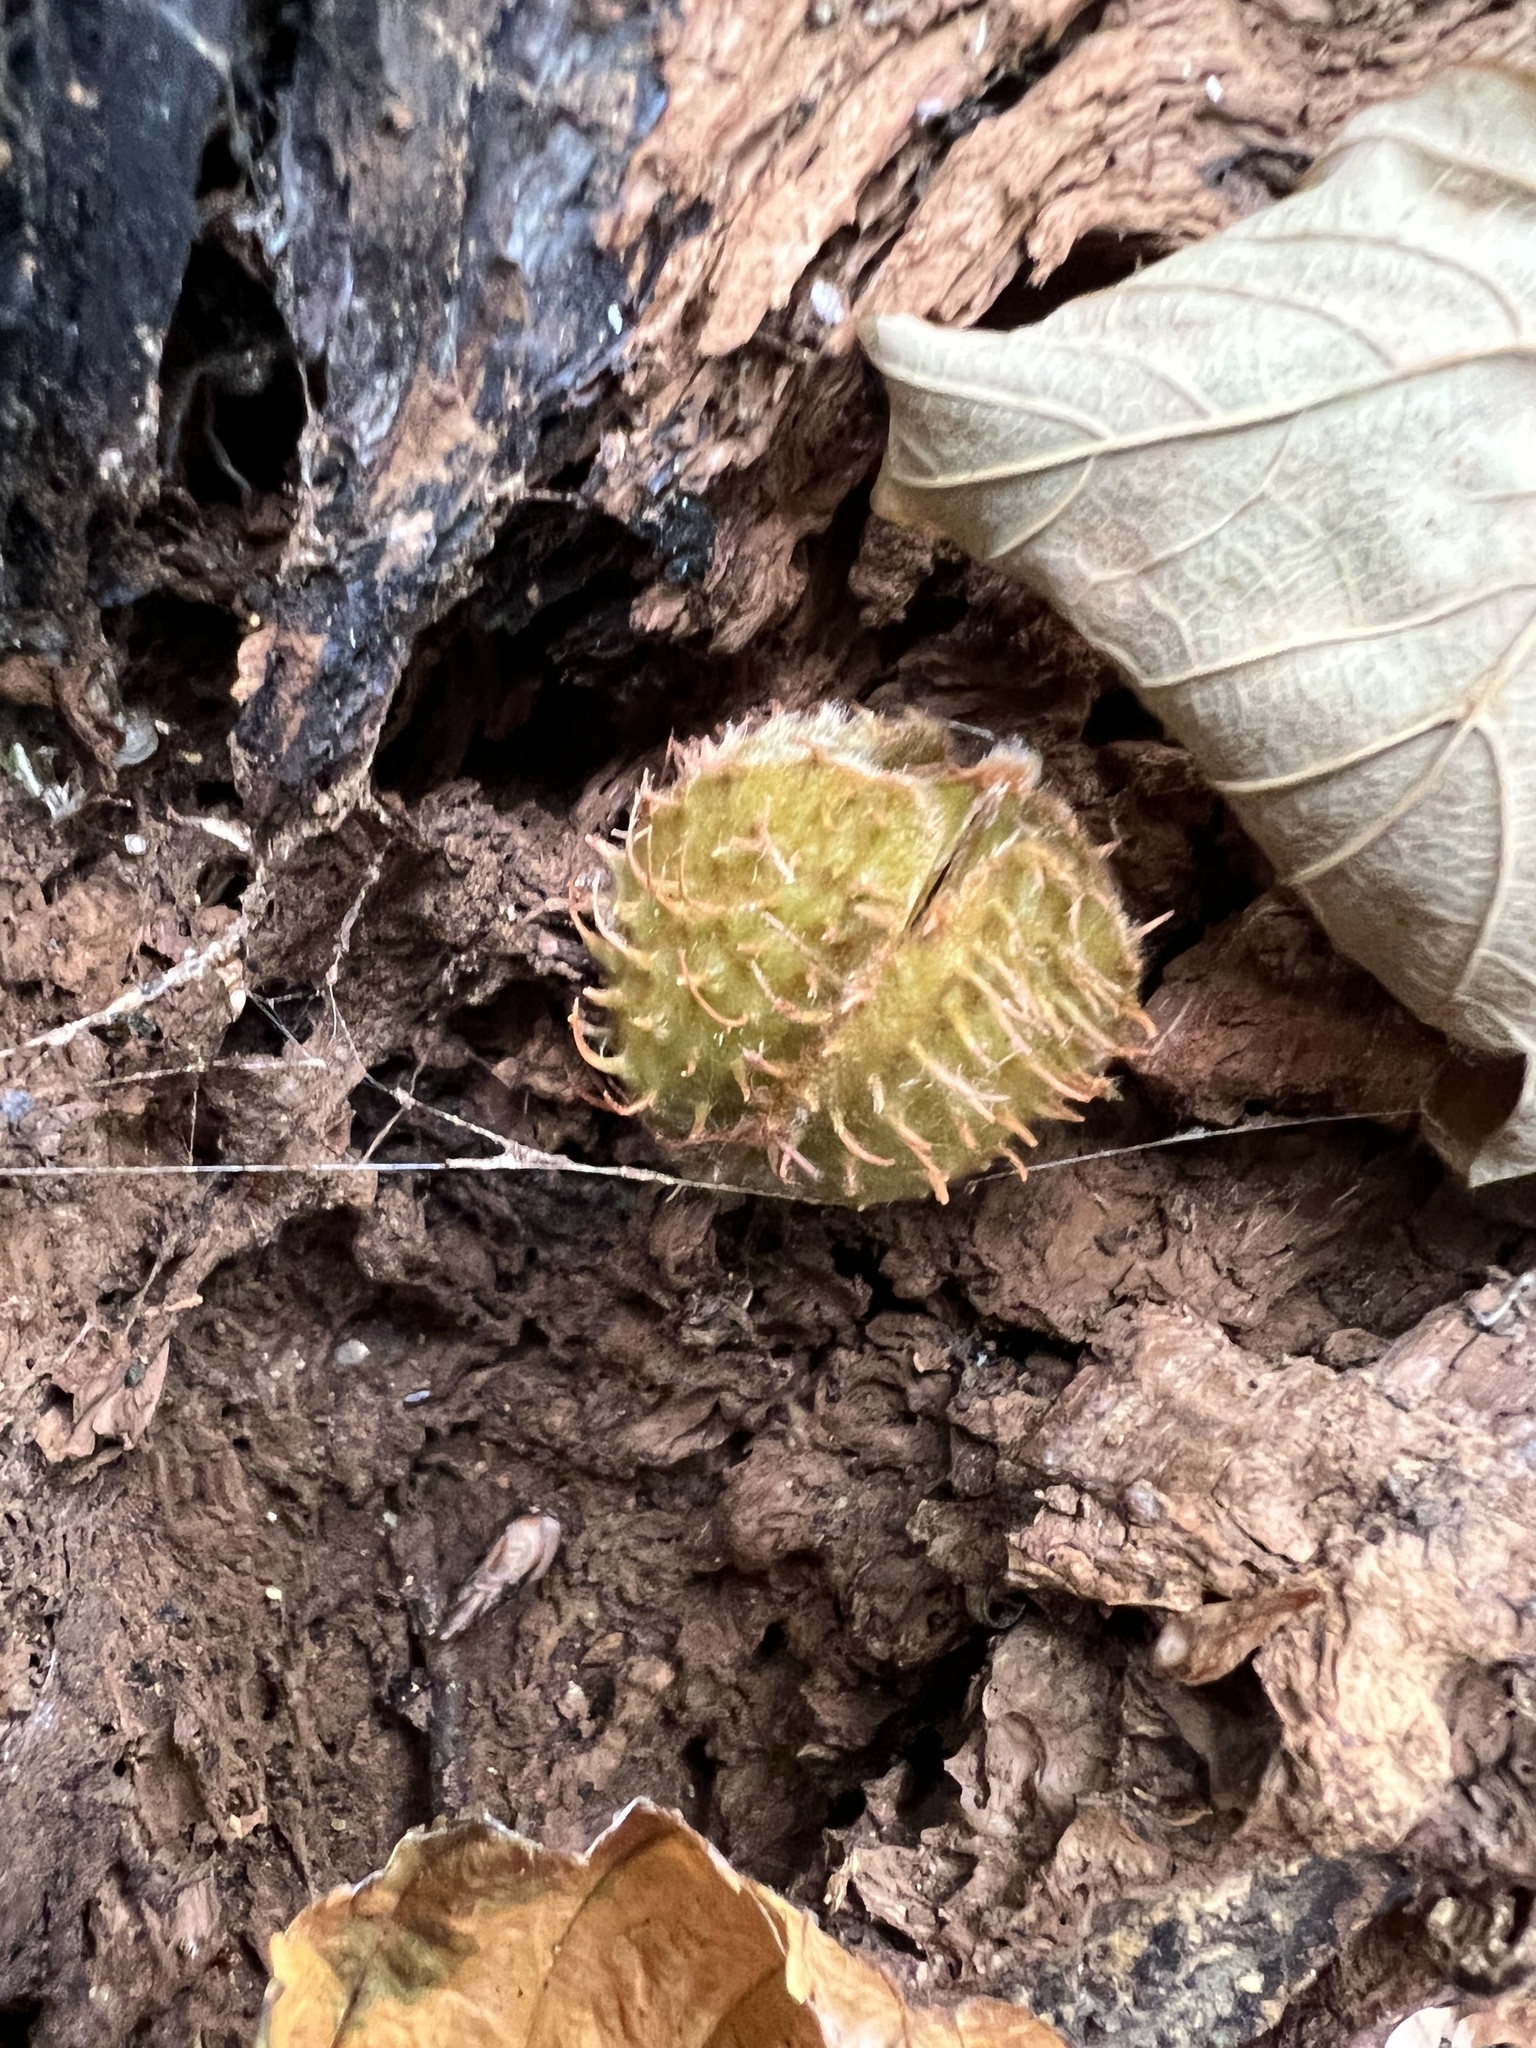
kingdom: Plantae
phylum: Tracheophyta
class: Magnoliopsida
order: Fagales
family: Fagaceae
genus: Fagus
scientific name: Fagus sylvatica
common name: Beech
